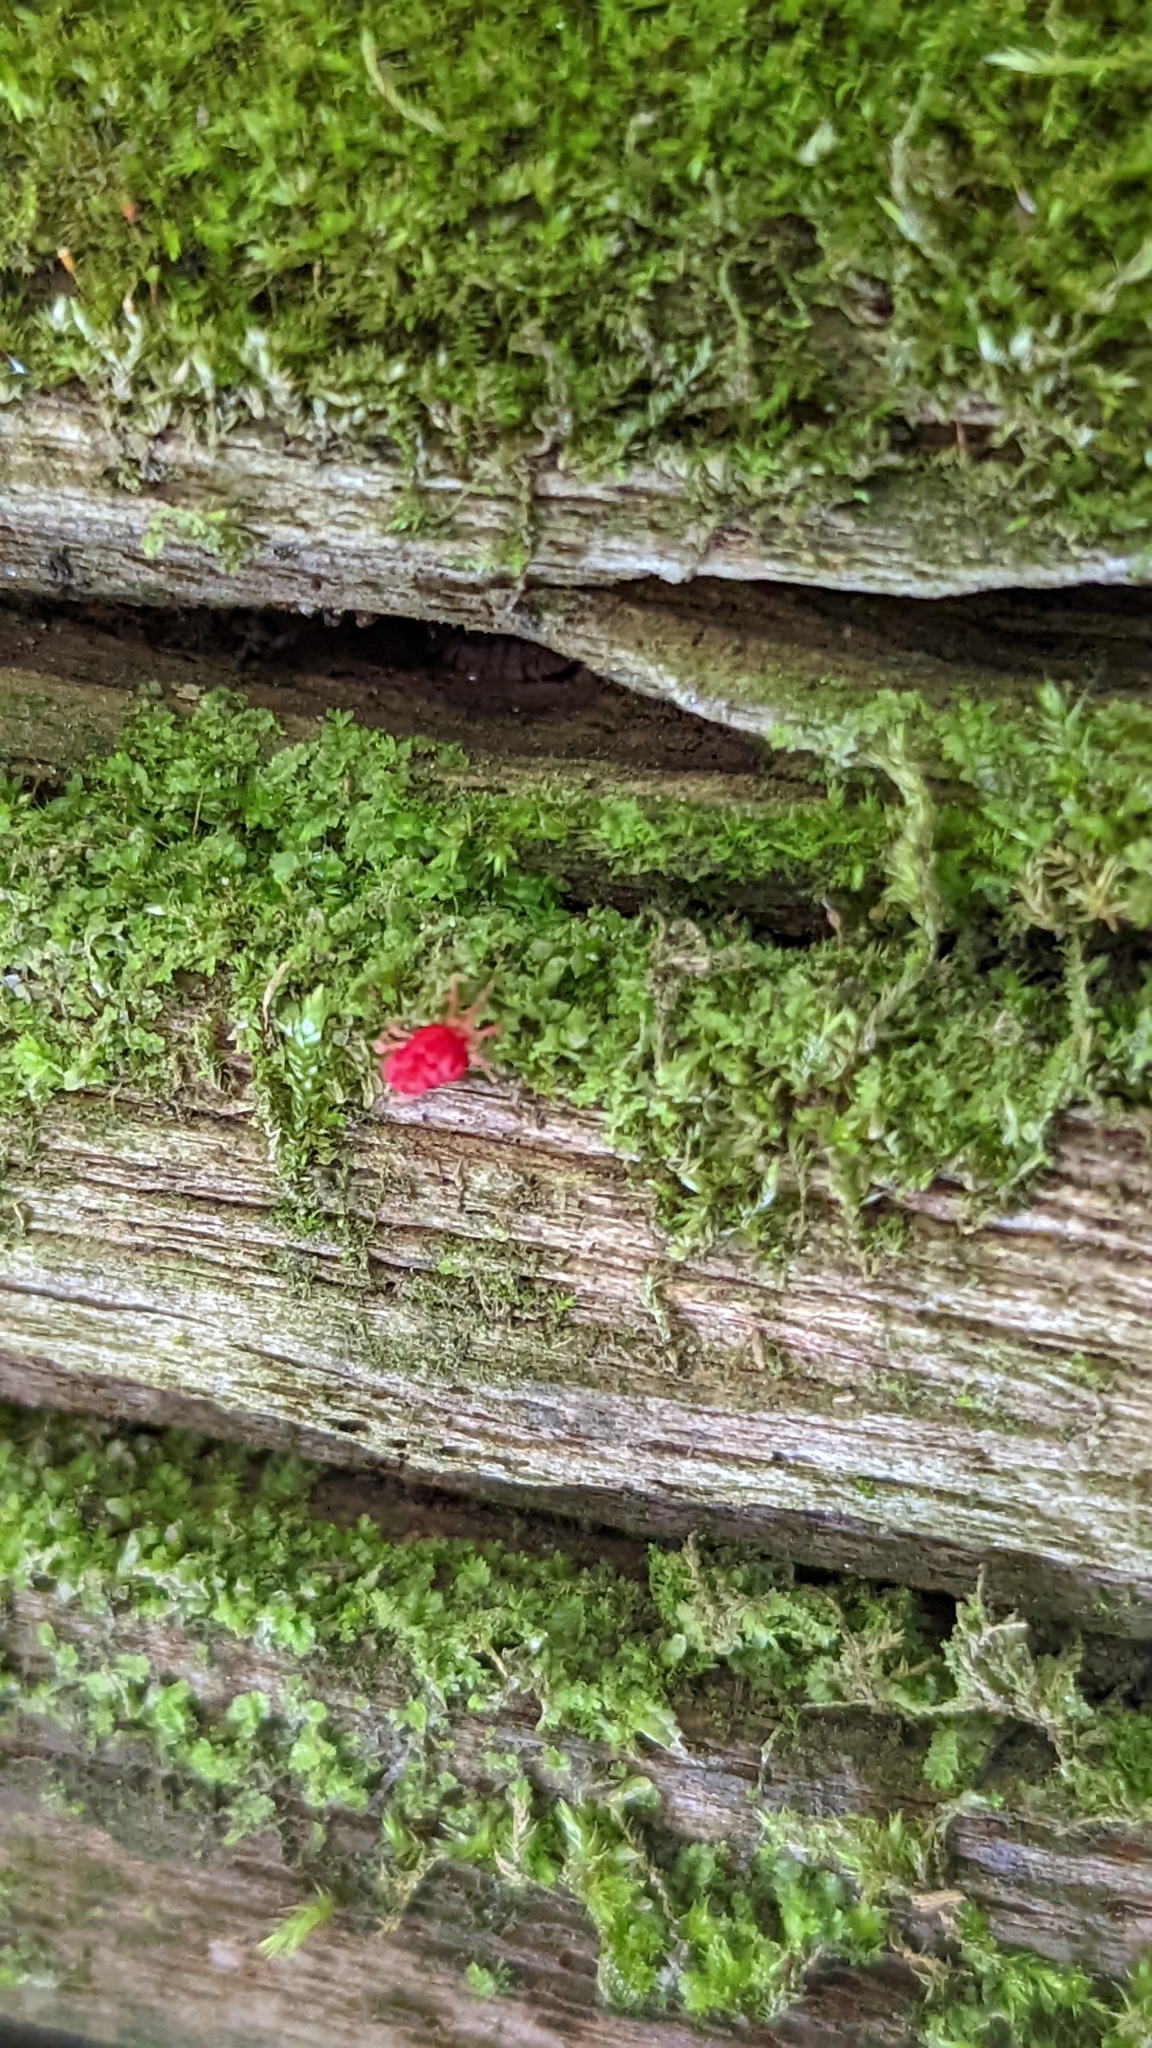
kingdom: Animalia
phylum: Arthropoda
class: Arachnida
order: Trombidiformes
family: Trombidiidae
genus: Trombidium
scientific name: Trombidium
